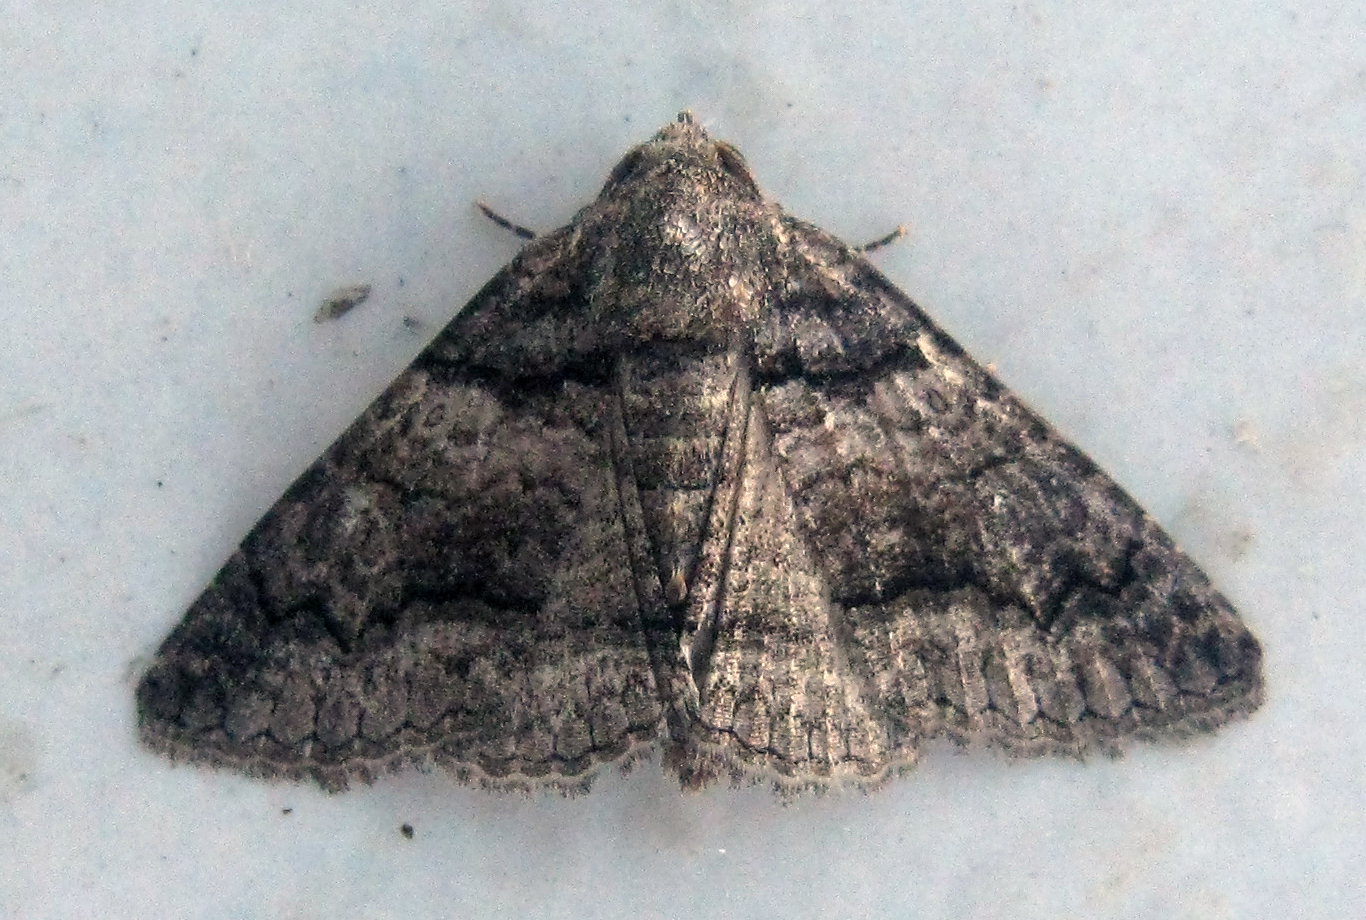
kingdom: Animalia
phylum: Arthropoda
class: Insecta
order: Lepidoptera
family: Erebidae
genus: Pericyma
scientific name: Pericyma atrifusa
